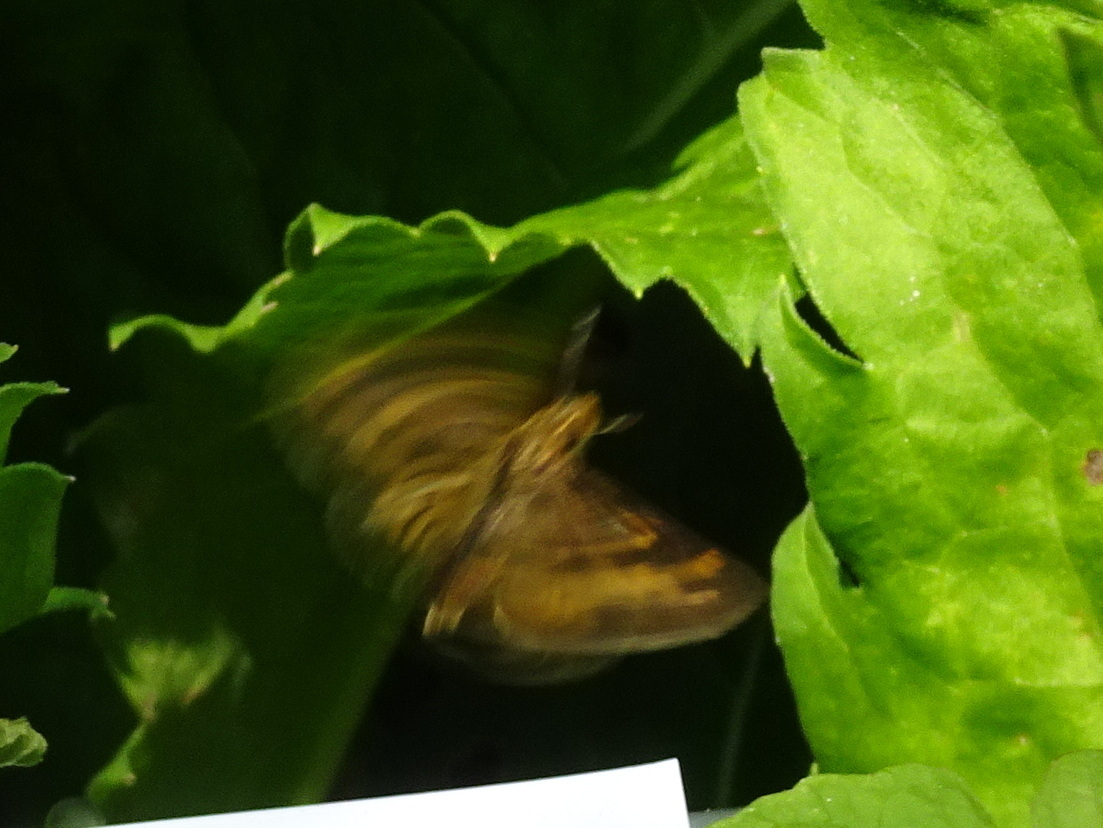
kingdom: Animalia
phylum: Arthropoda
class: Insecta
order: Lepidoptera
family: Hesperiidae
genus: Polites
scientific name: Polites coras
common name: Peck's skipper
